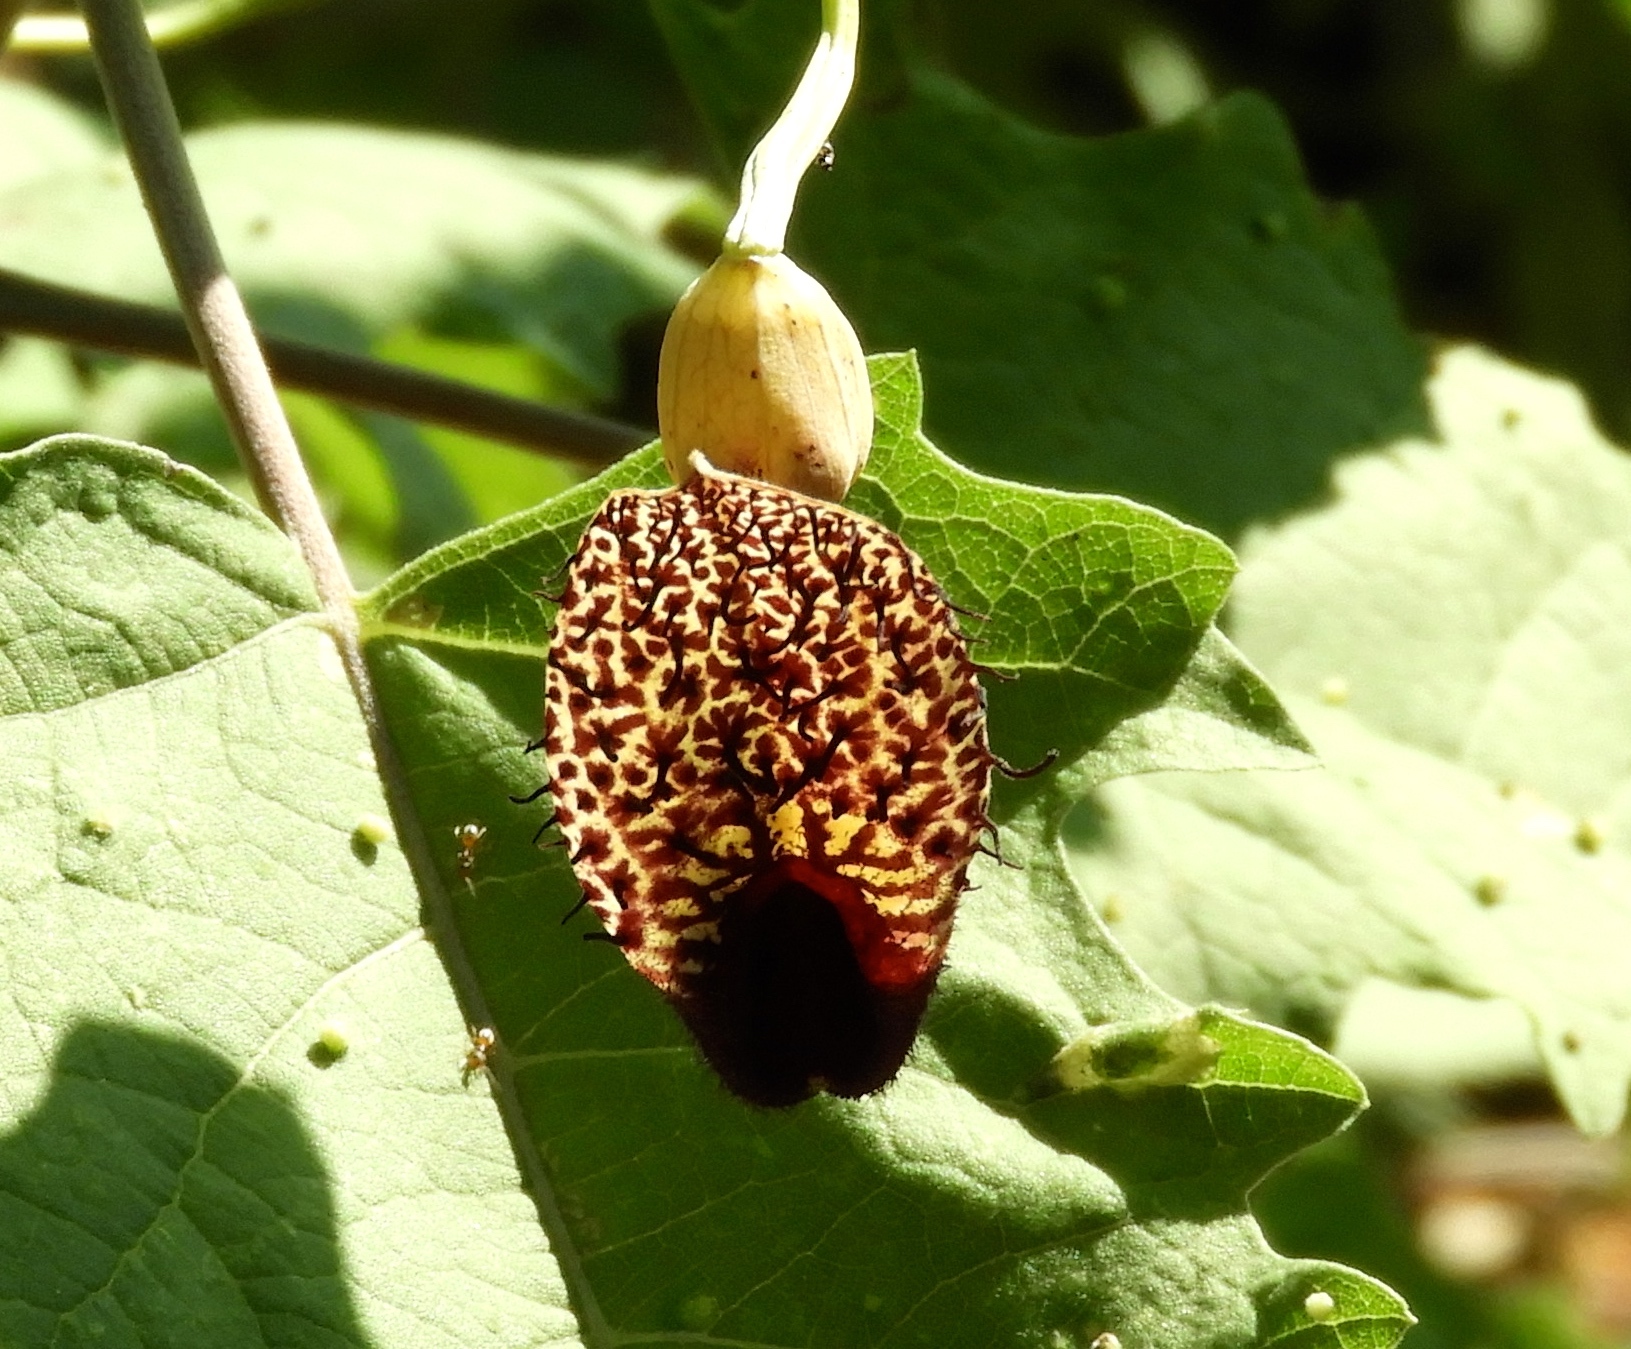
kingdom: Plantae
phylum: Tracheophyta
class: Magnoliopsida
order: Piperales
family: Aristolochiaceae
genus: Aristolochia
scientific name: Aristolochia taliscana
